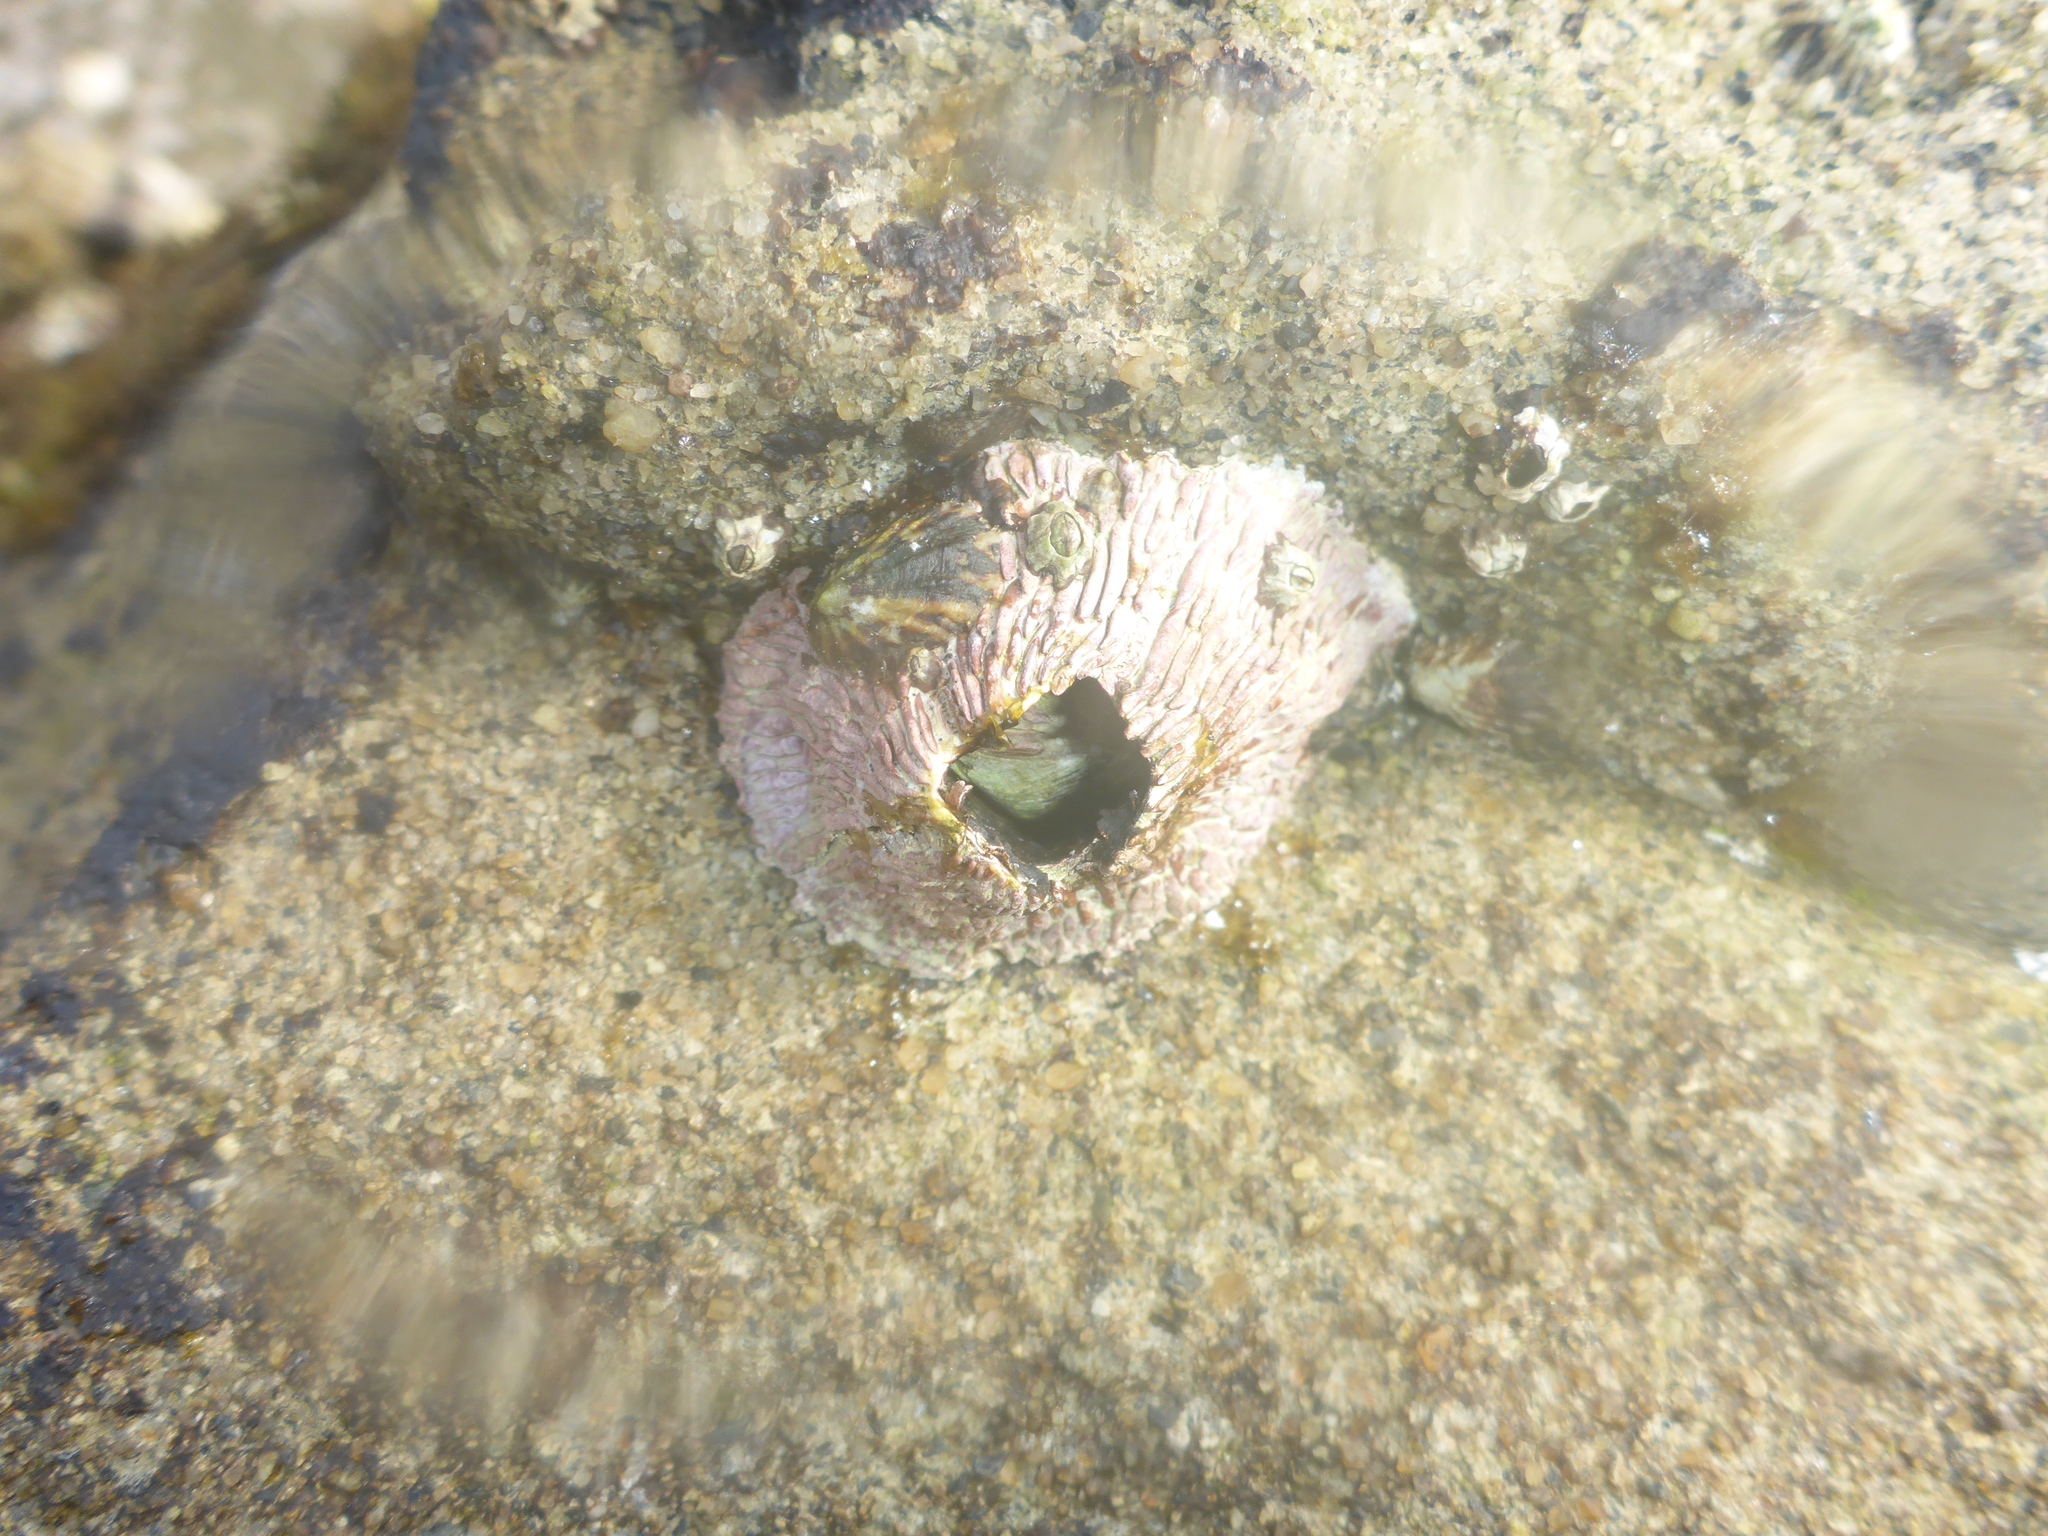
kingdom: Animalia
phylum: Arthropoda
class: Maxillopoda
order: Sessilia
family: Tetraclitidae
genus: Tetraclita
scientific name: Tetraclita rubescens
